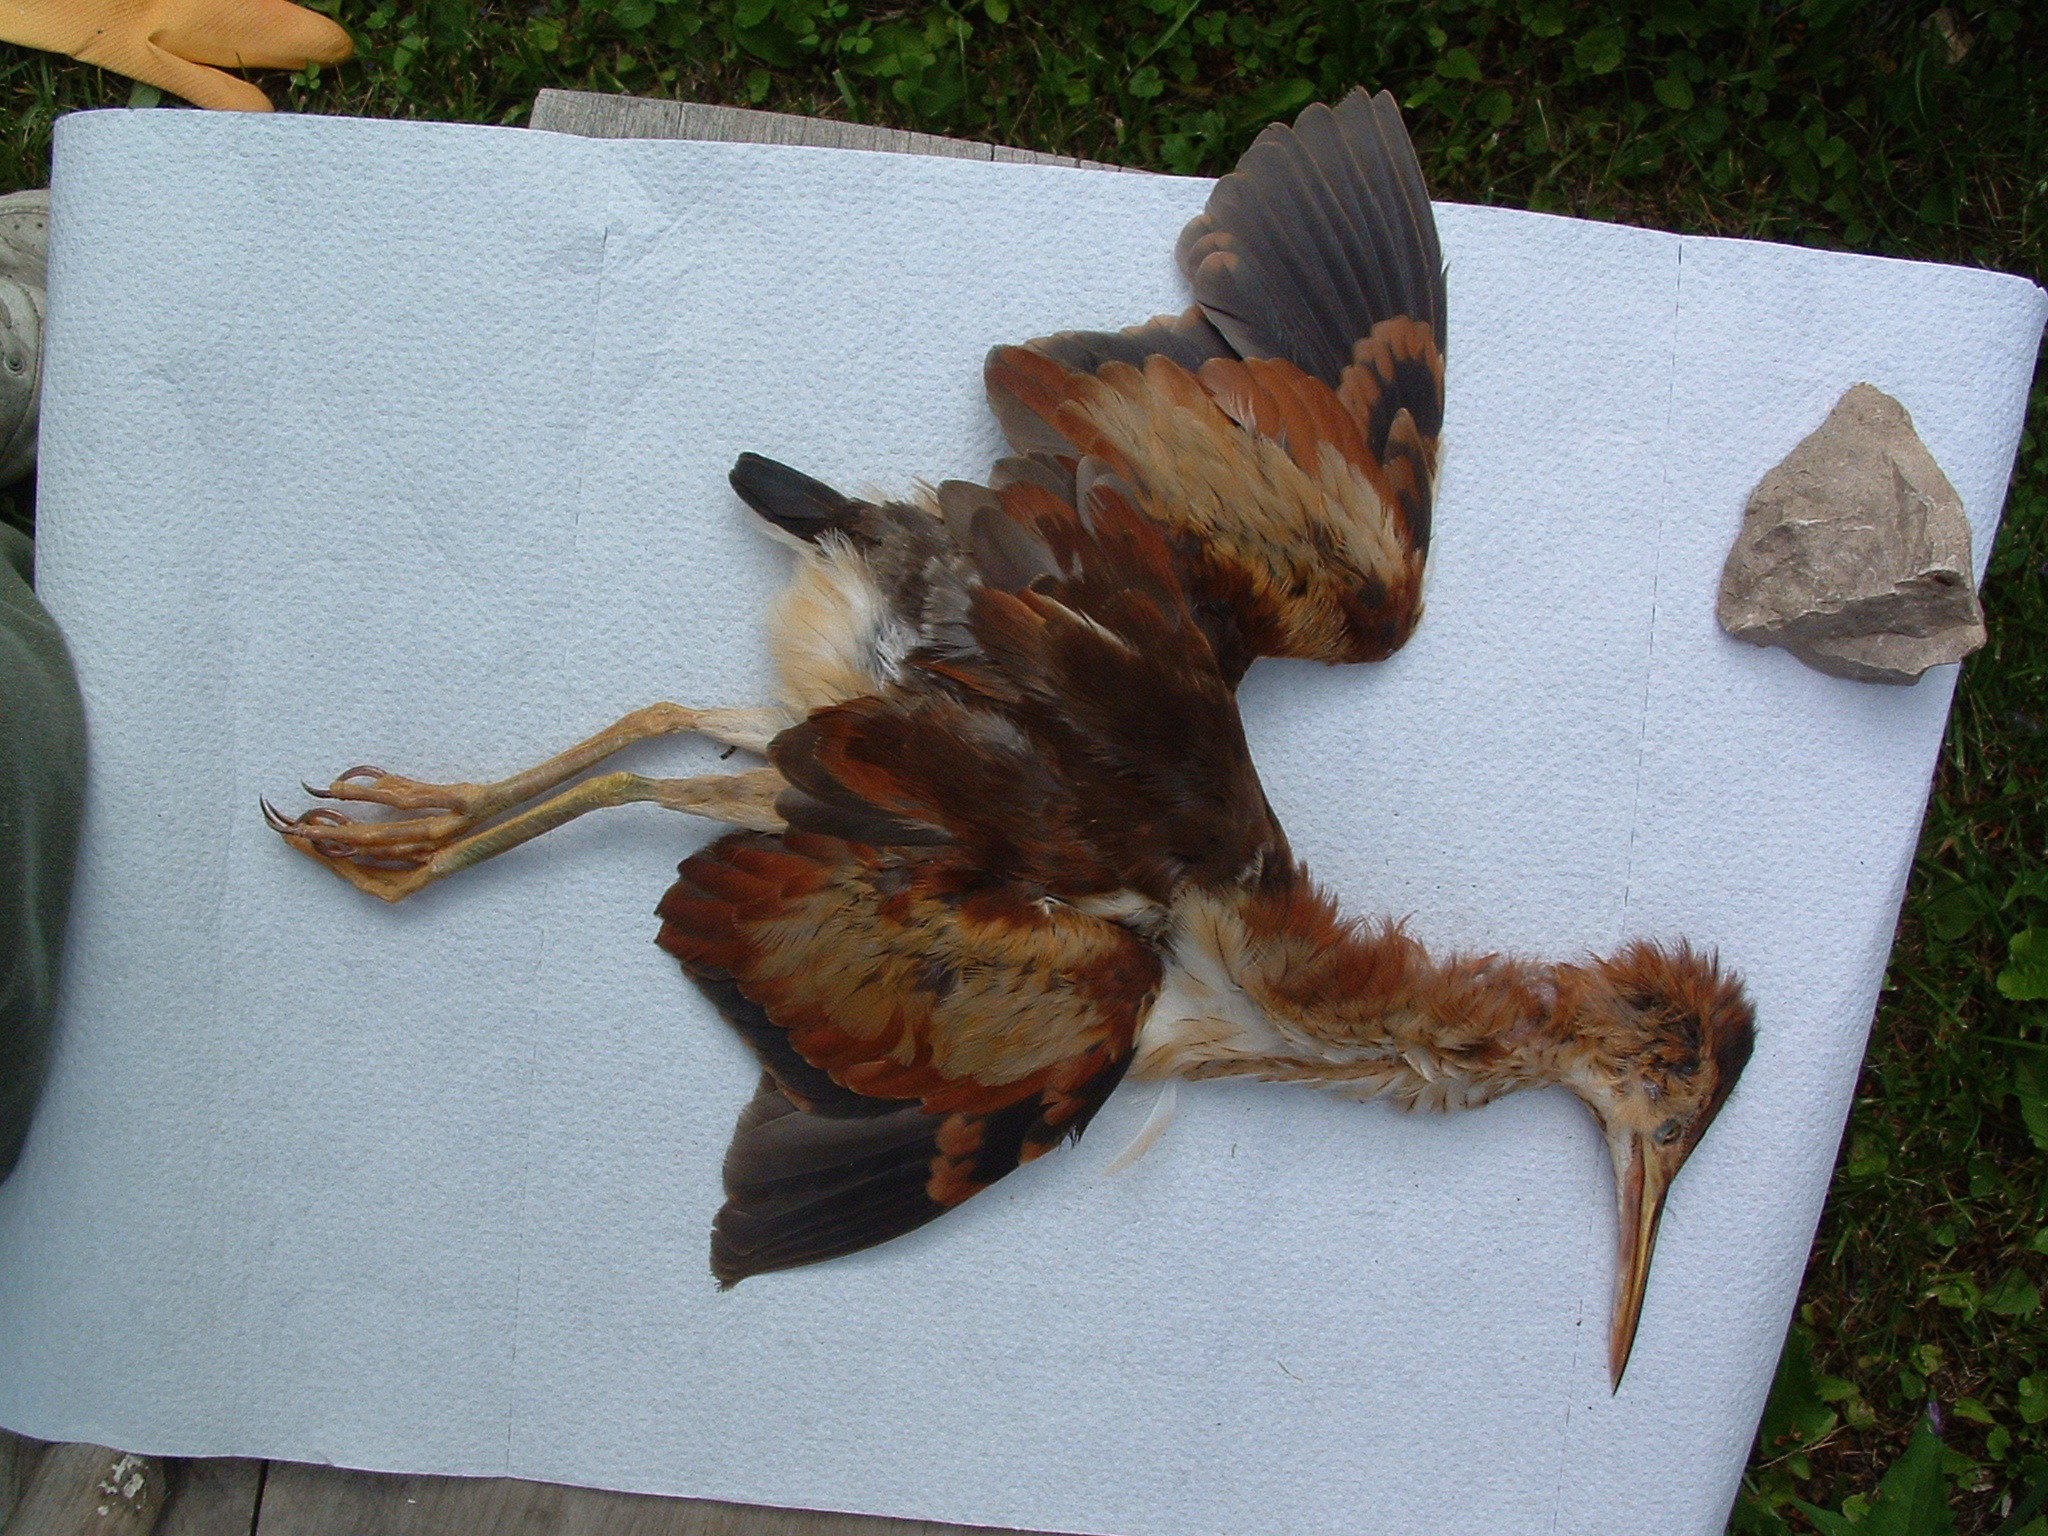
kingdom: Animalia
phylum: Chordata
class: Aves
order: Pelecaniformes
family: Ardeidae
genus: Ixobrychus
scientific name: Ixobrychus exilis
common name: Least bittern
